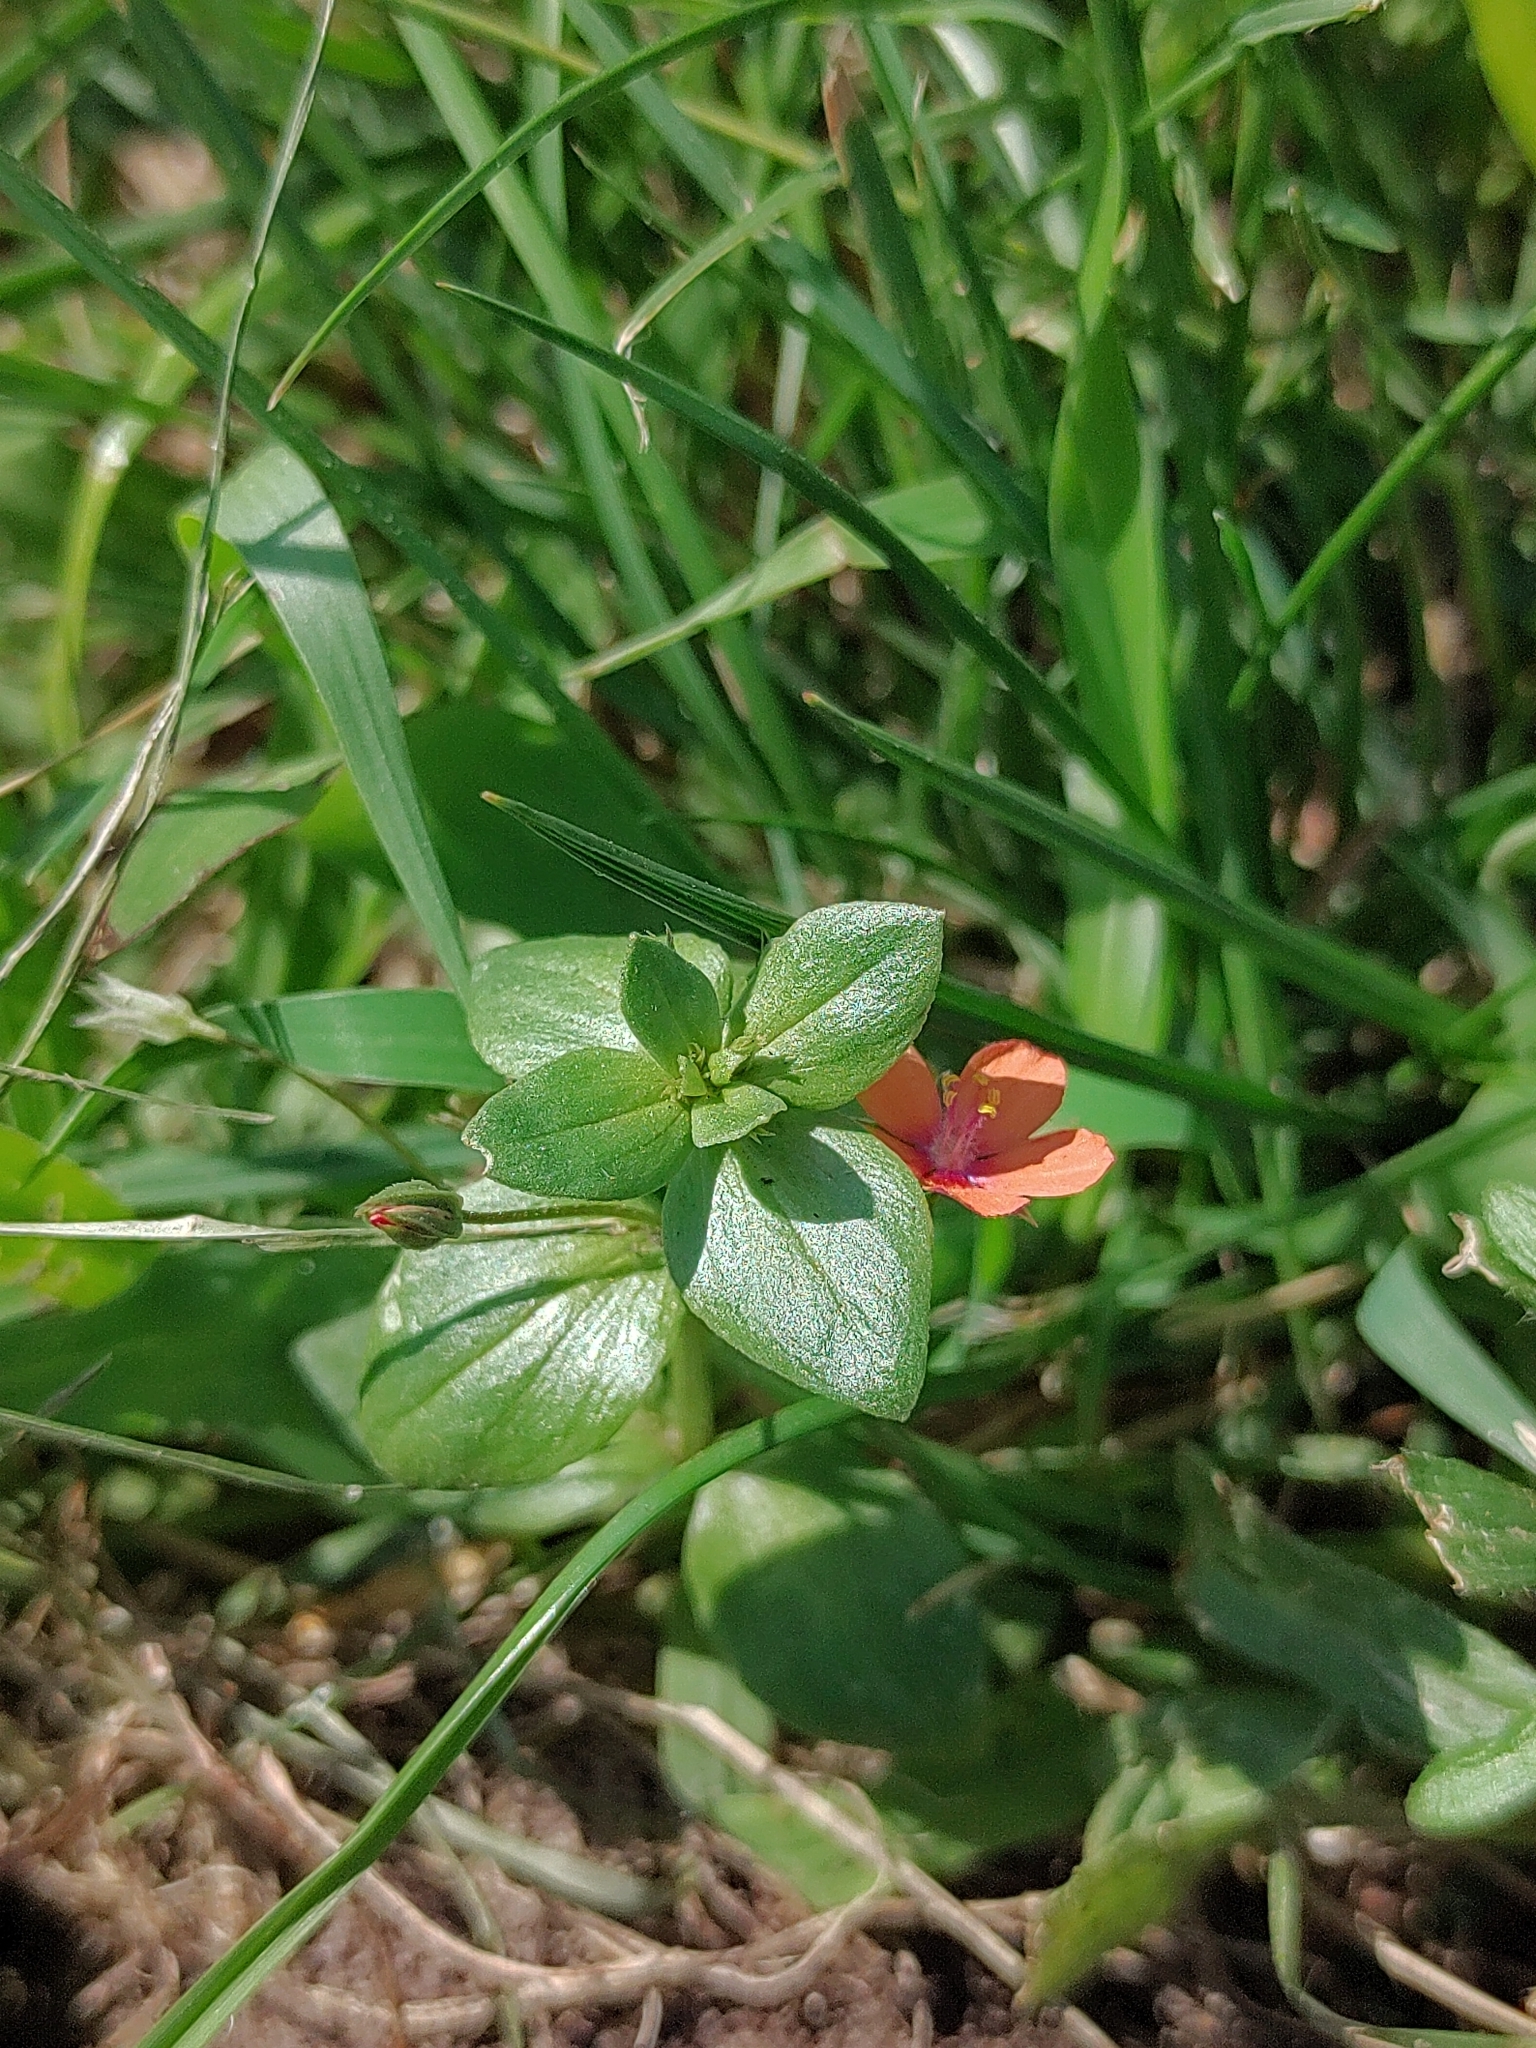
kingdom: Plantae
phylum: Tracheophyta
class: Magnoliopsida
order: Ericales
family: Primulaceae
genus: Lysimachia
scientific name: Lysimachia arvensis
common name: Scarlet pimpernel
